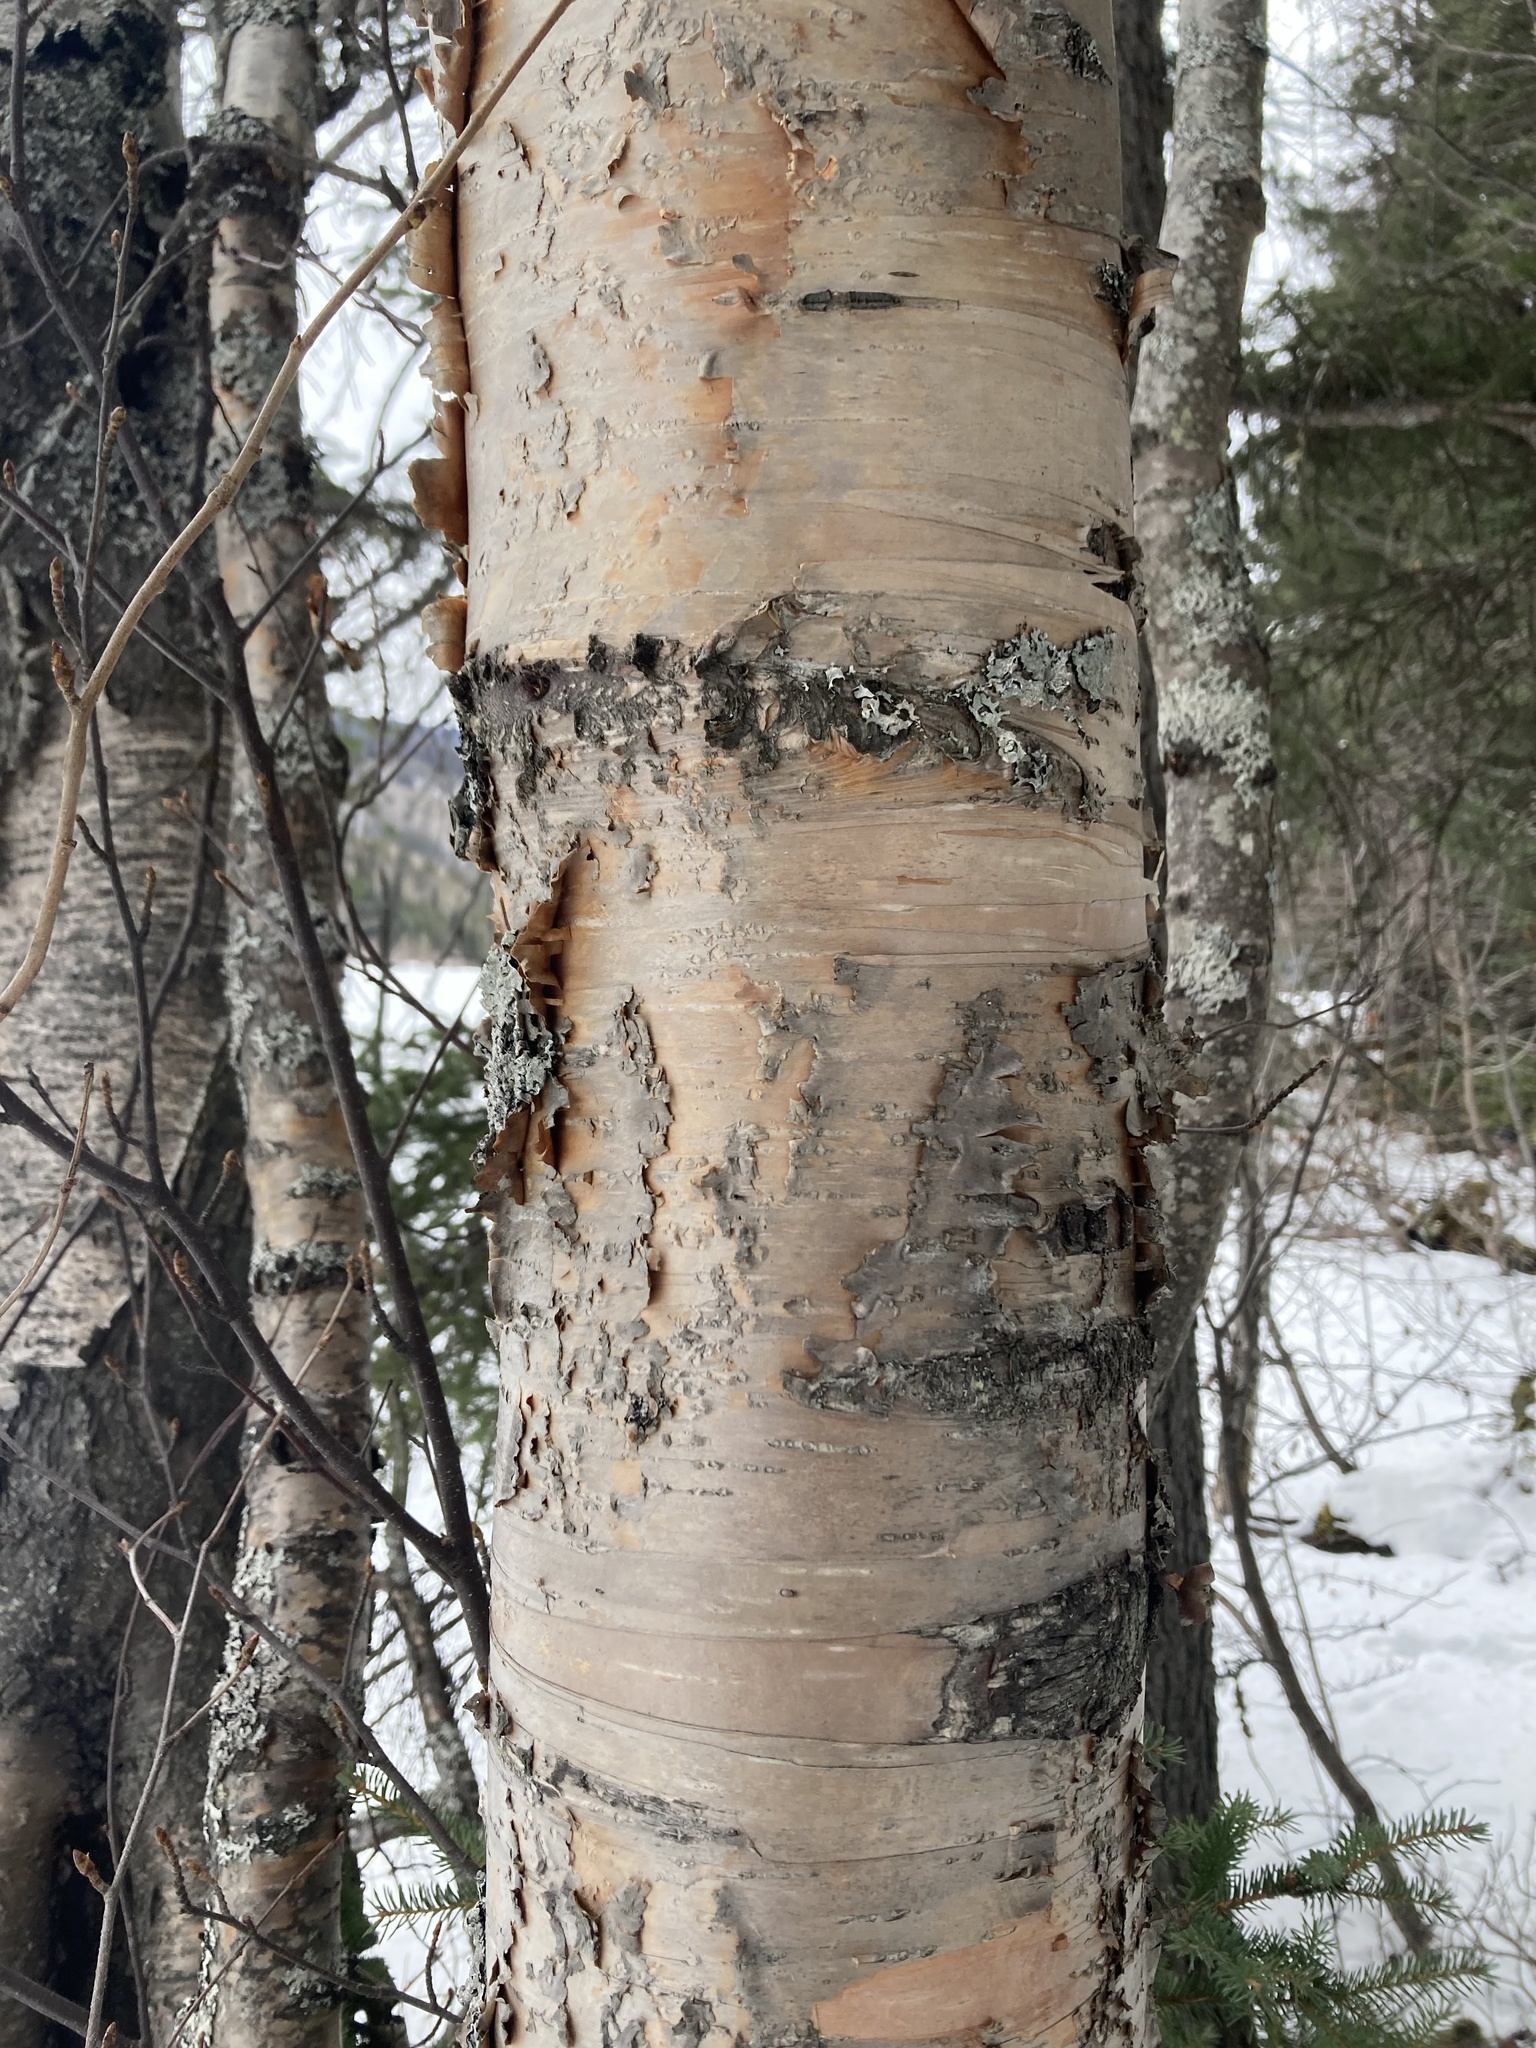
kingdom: Plantae
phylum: Tracheophyta
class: Magnoliopsida
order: Fagales
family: Betulaceae
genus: Betula
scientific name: Betula papyrifera
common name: Paper birch
